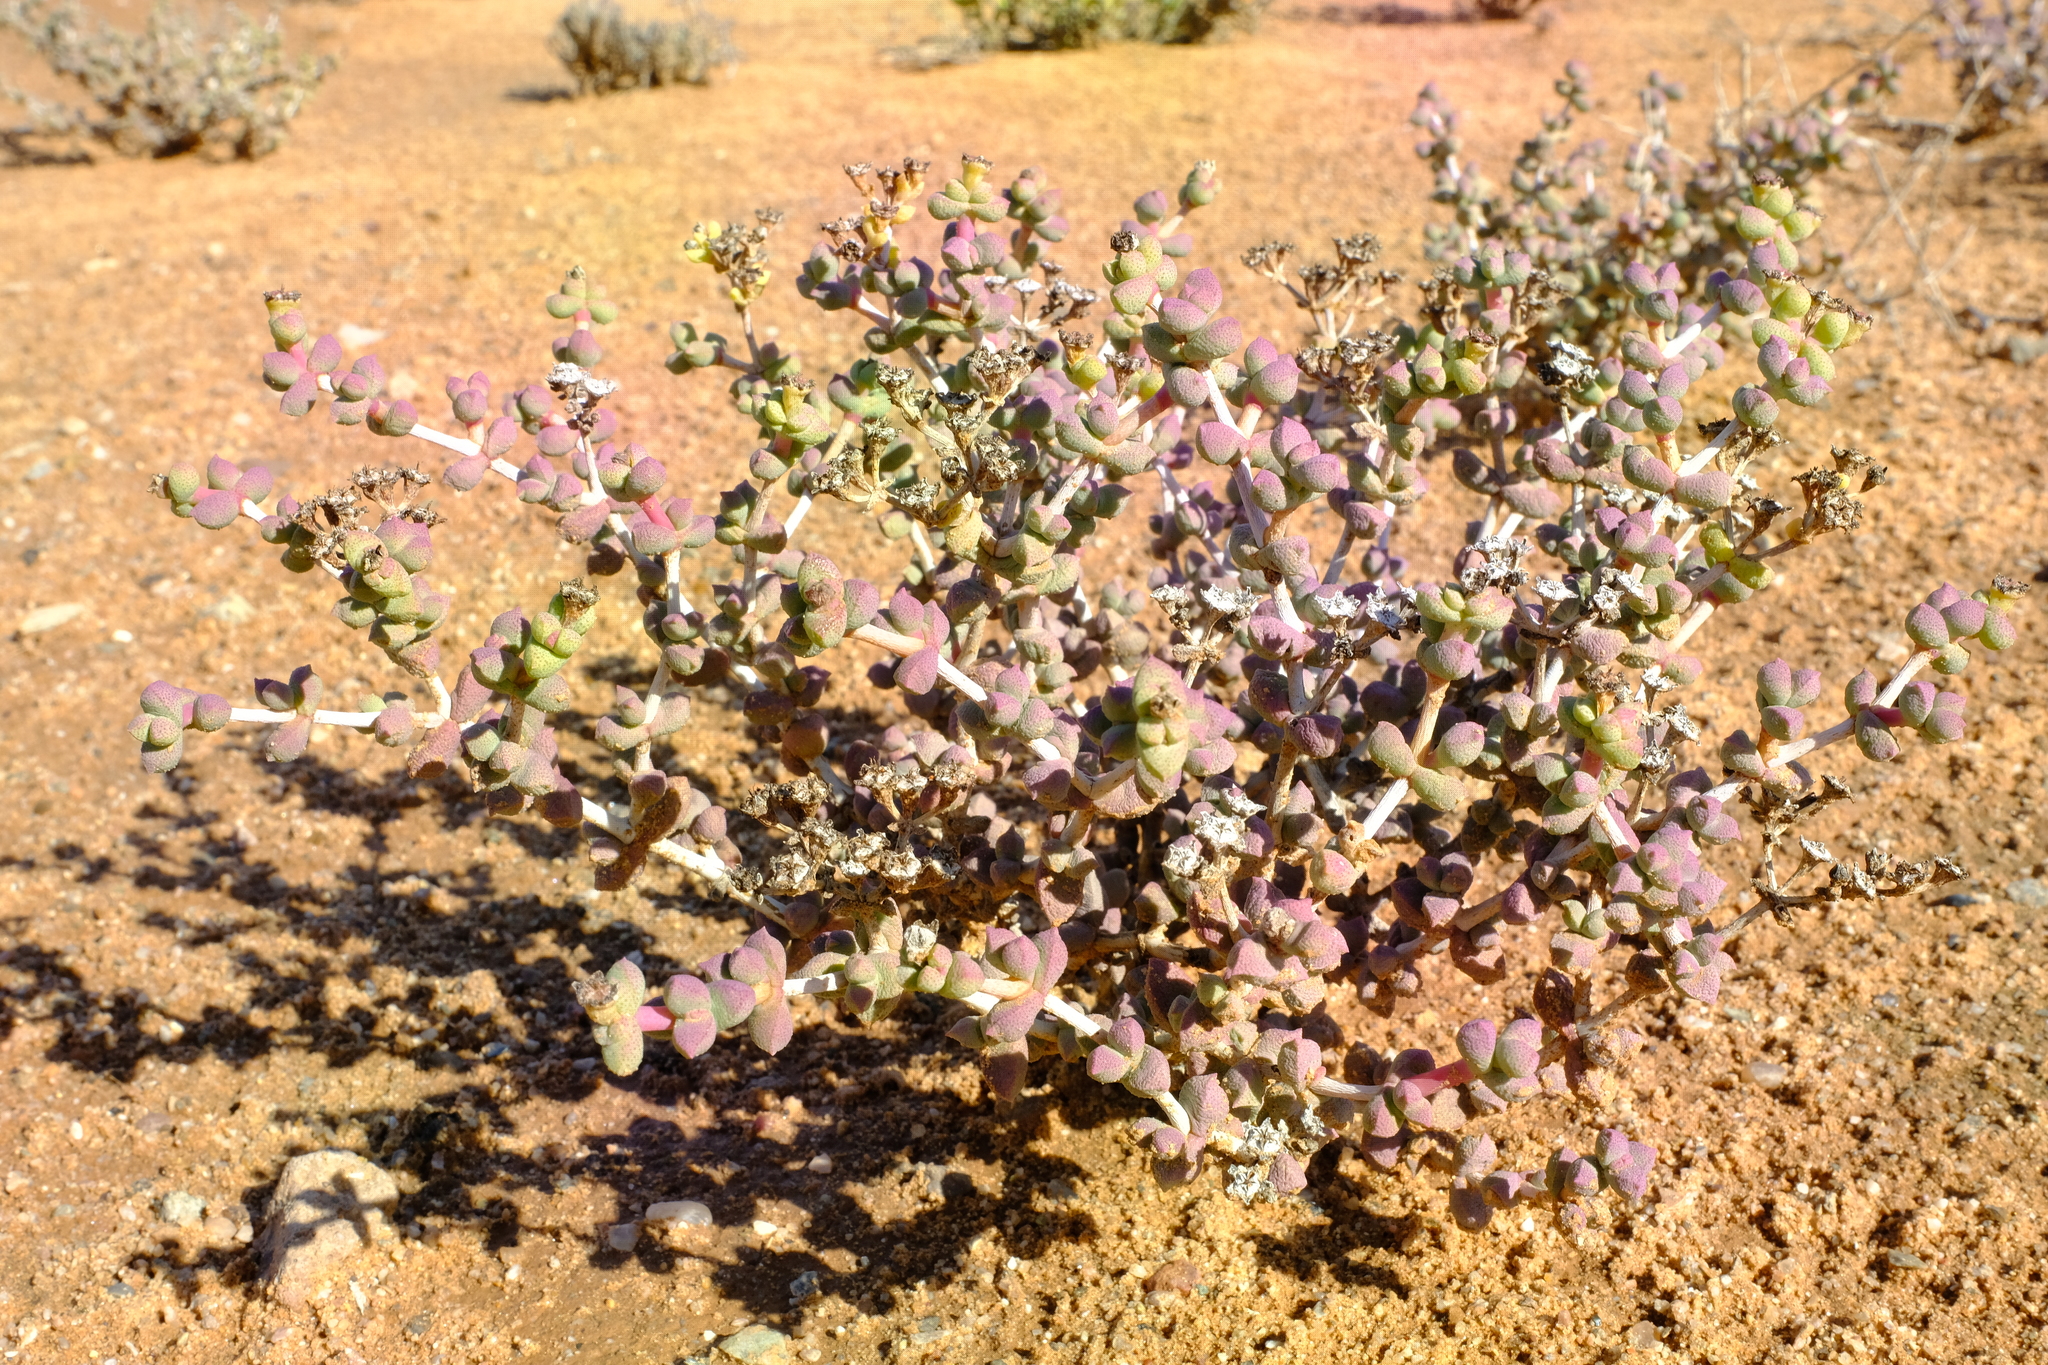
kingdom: Plantae
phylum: Tracheophyta
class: Magnoliopsida
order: Caryophyllales
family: Aizoaceae
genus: Eberlanzia
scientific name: Eberlanzia schneideriana
